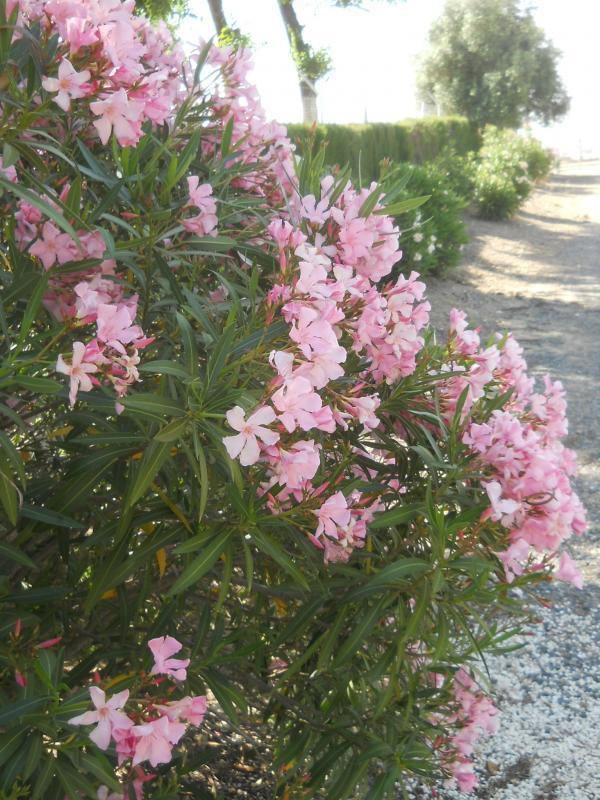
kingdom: Plantae
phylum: Tracheophyta
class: Magnoliopsida
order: Gentianales
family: Apocynaceae
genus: Nerium
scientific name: Nerium oleander
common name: Oleander
